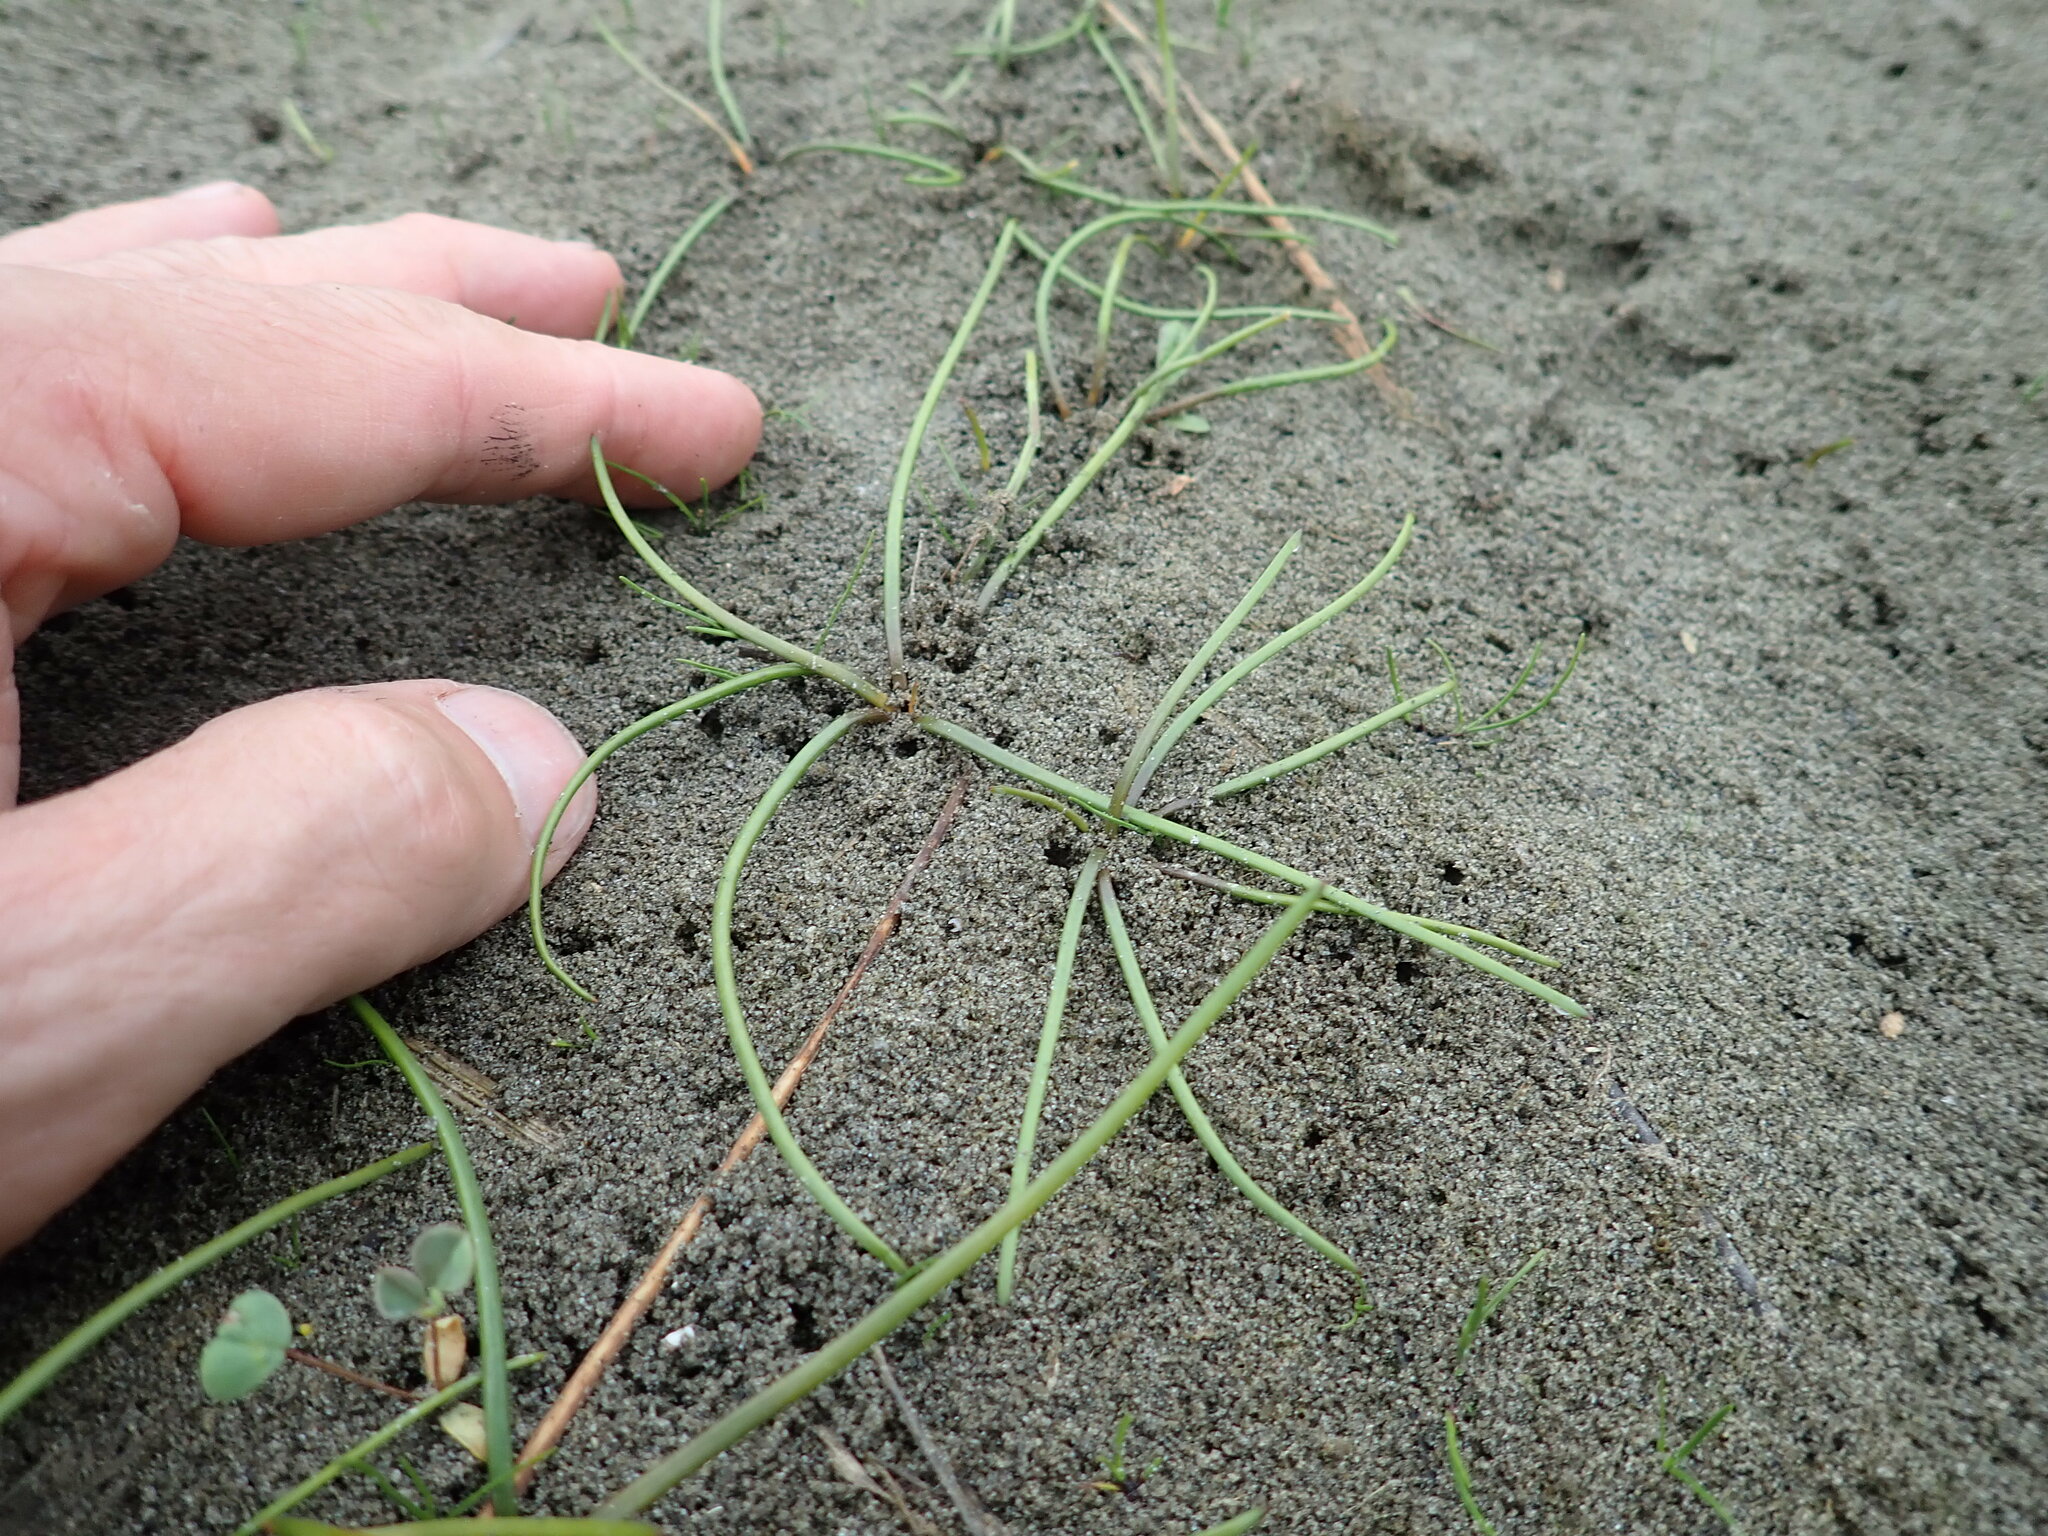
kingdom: Plantae
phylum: Tracheophyta
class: Liliopsida
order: Alismatales
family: Juncaginaceae
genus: Triglochin
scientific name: Triglochin striata
